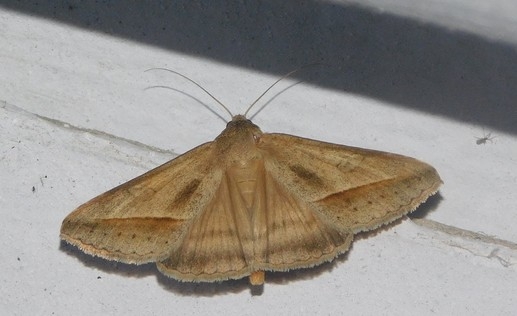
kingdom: Animalia
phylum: Arthropoda
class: Insecta
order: Lepidoptera
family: Erebidae
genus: Mocis
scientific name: Mocis frugalis
